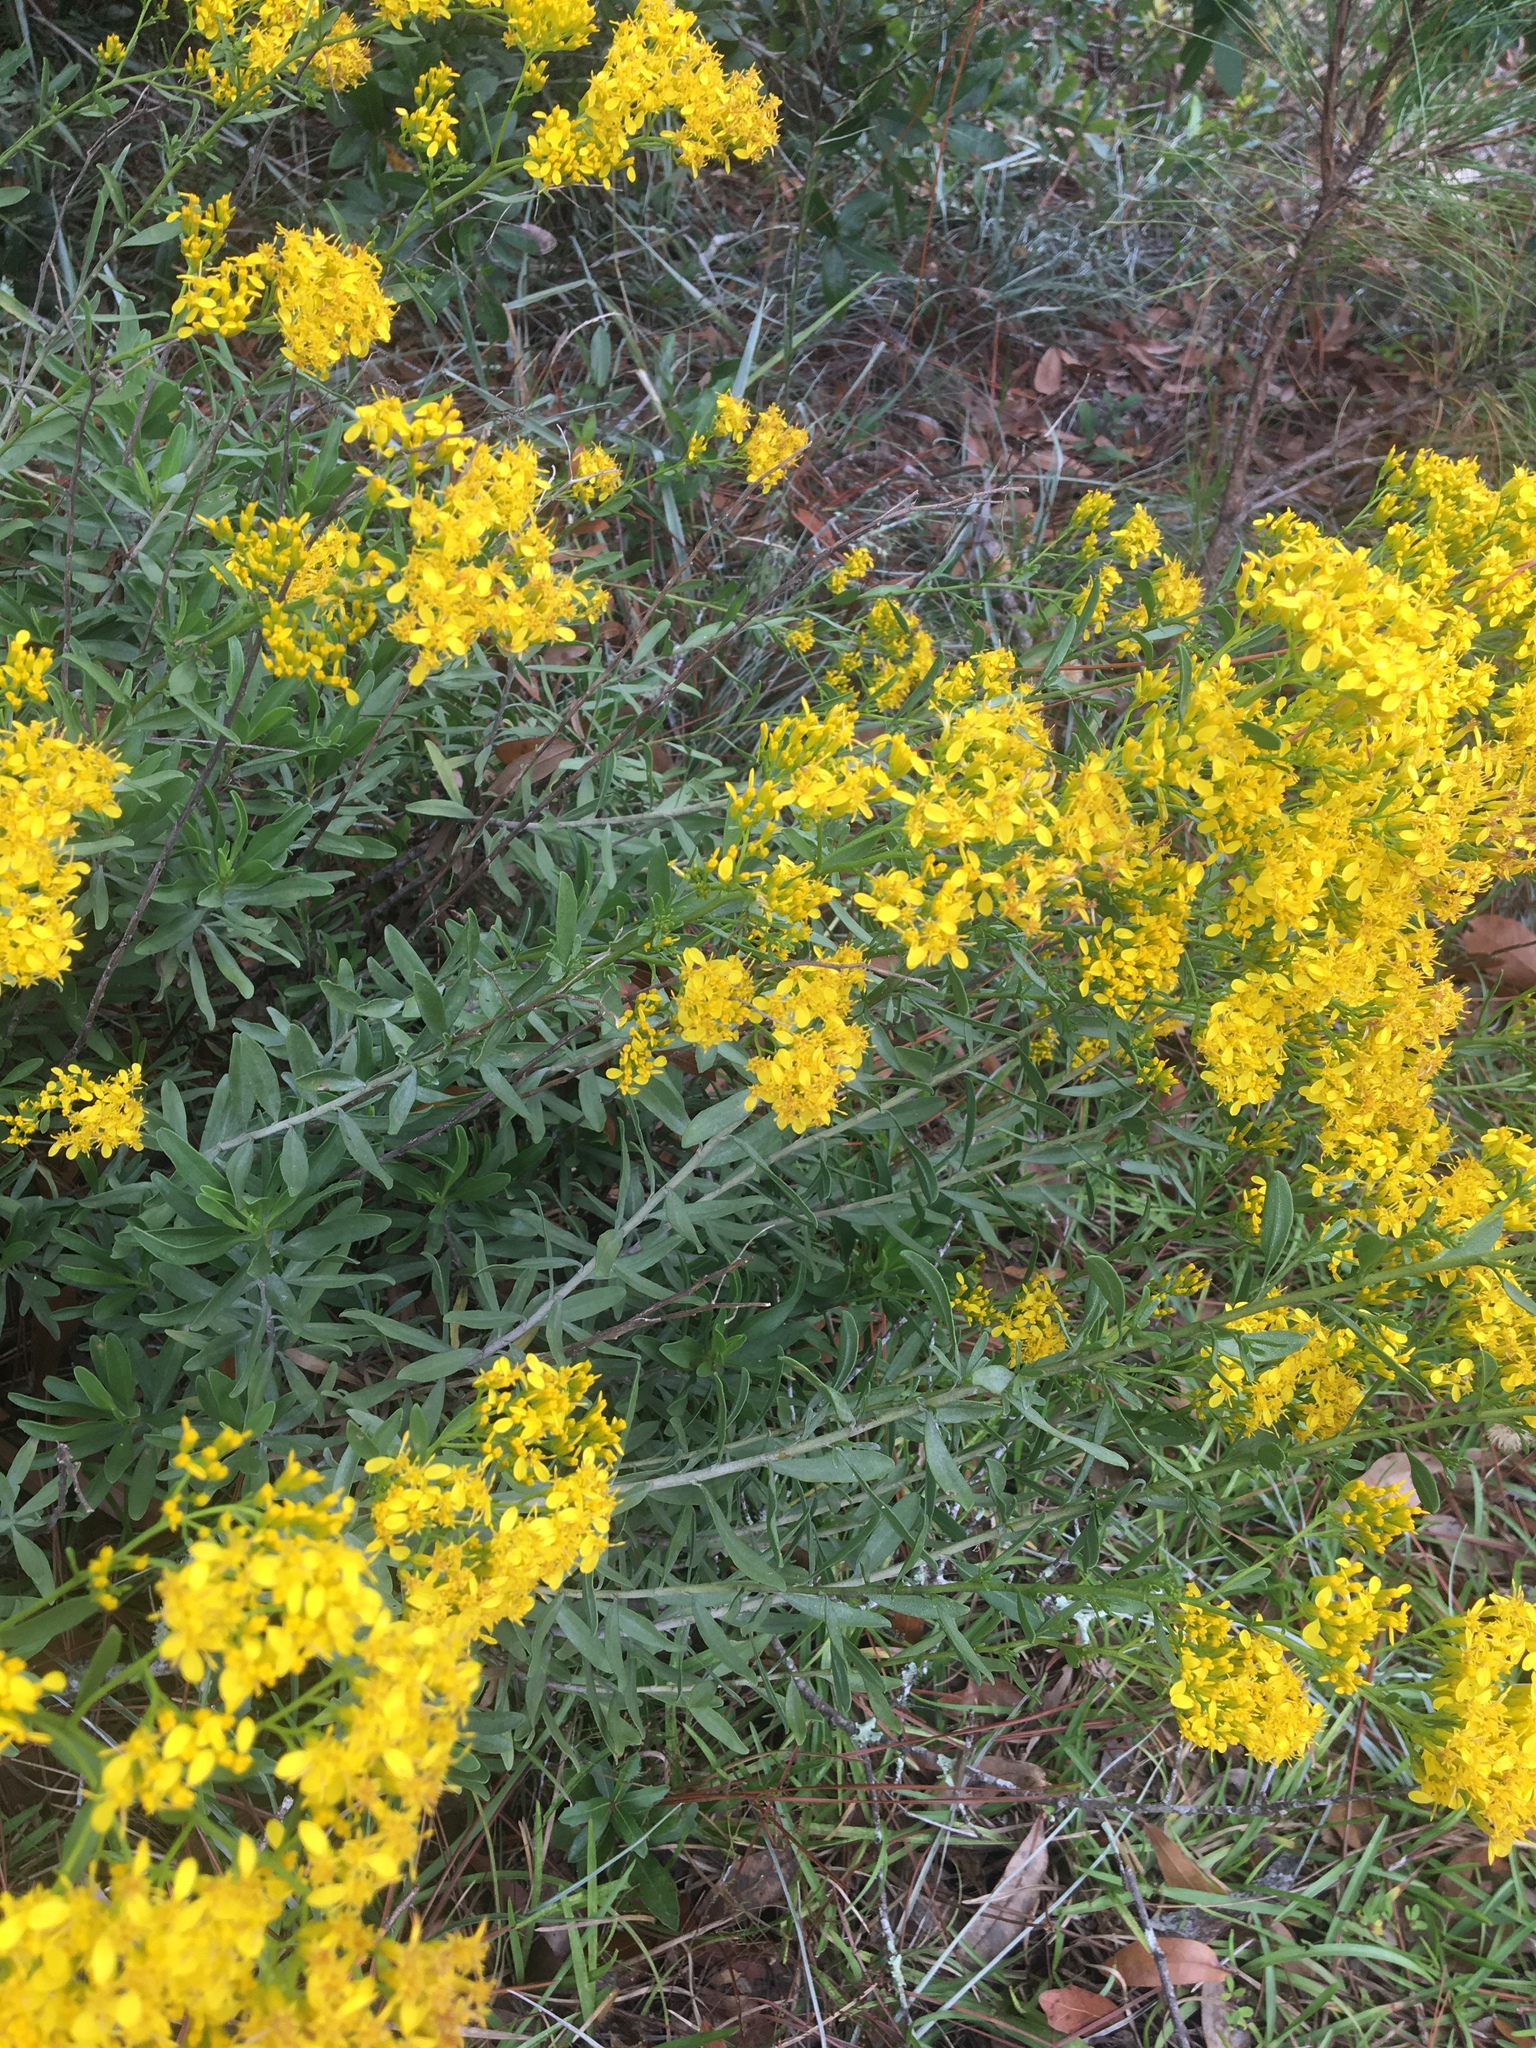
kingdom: Plantae
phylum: Tracheophyta
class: Magnoliopsida
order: Asterales
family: Asteraceae
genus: Chrysoma
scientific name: Chrysoma pauciflosculosa
